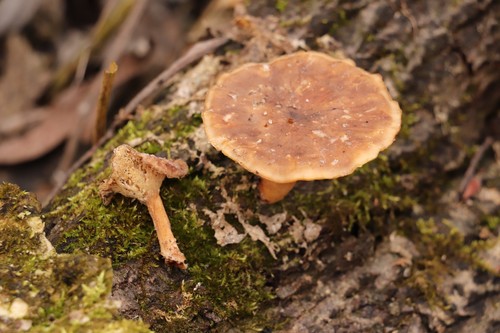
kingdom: Fungi
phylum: Basidiomycota
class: Agaricomycetes
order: Polyporales
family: Polyporaceae
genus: Lentinus
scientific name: Lentinus
